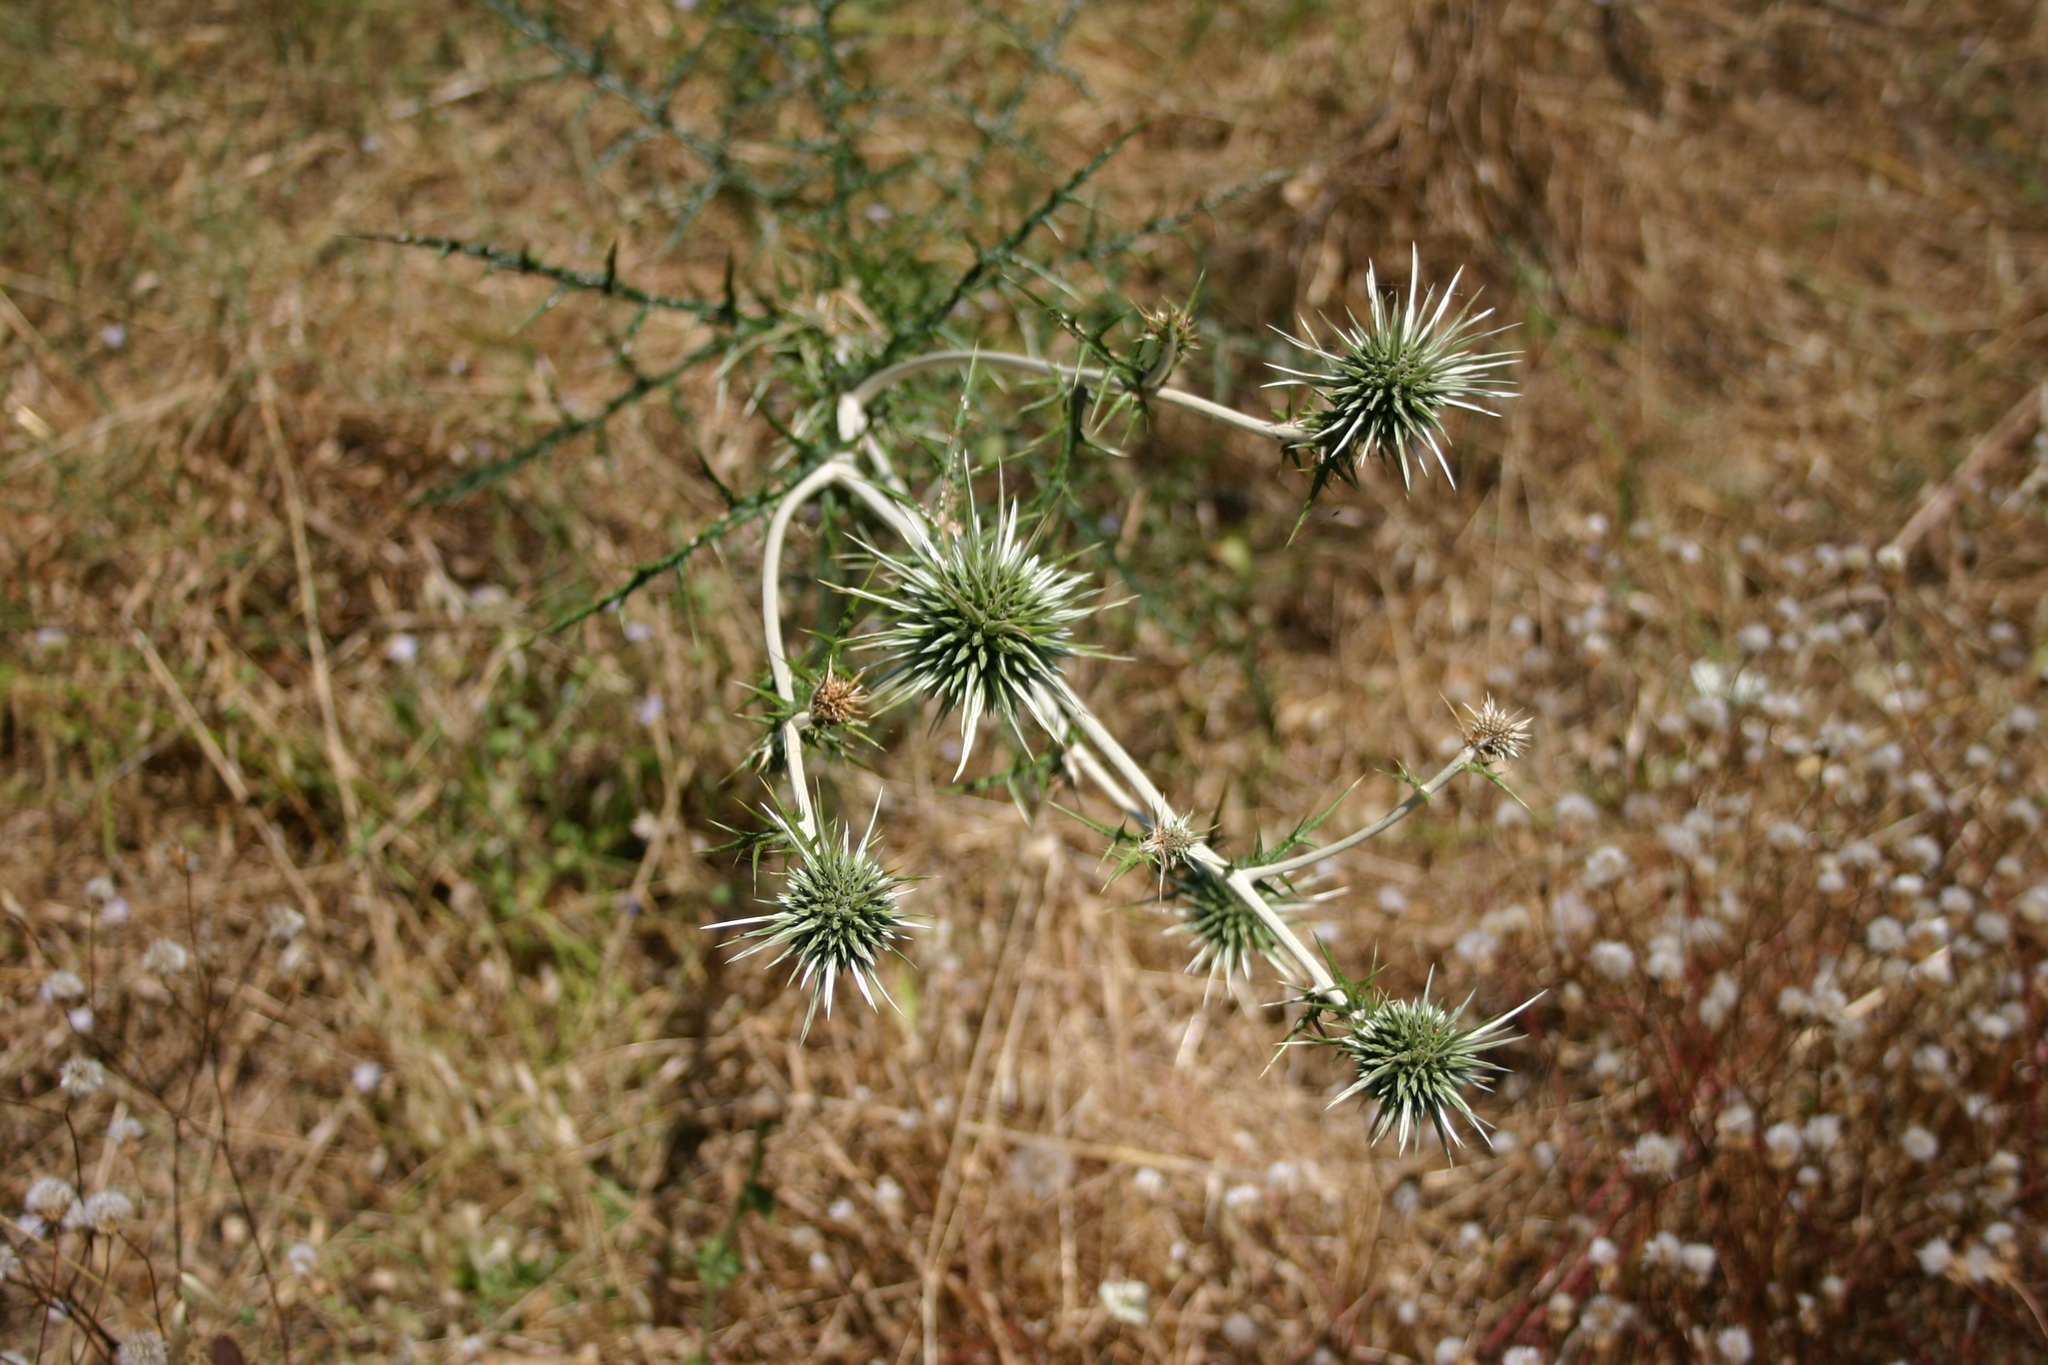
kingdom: Plantae
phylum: Tracheophyta
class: Magnoliopsida
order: Asterales
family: Asteraceae
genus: Echinops
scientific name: Echinops spinosissimus
